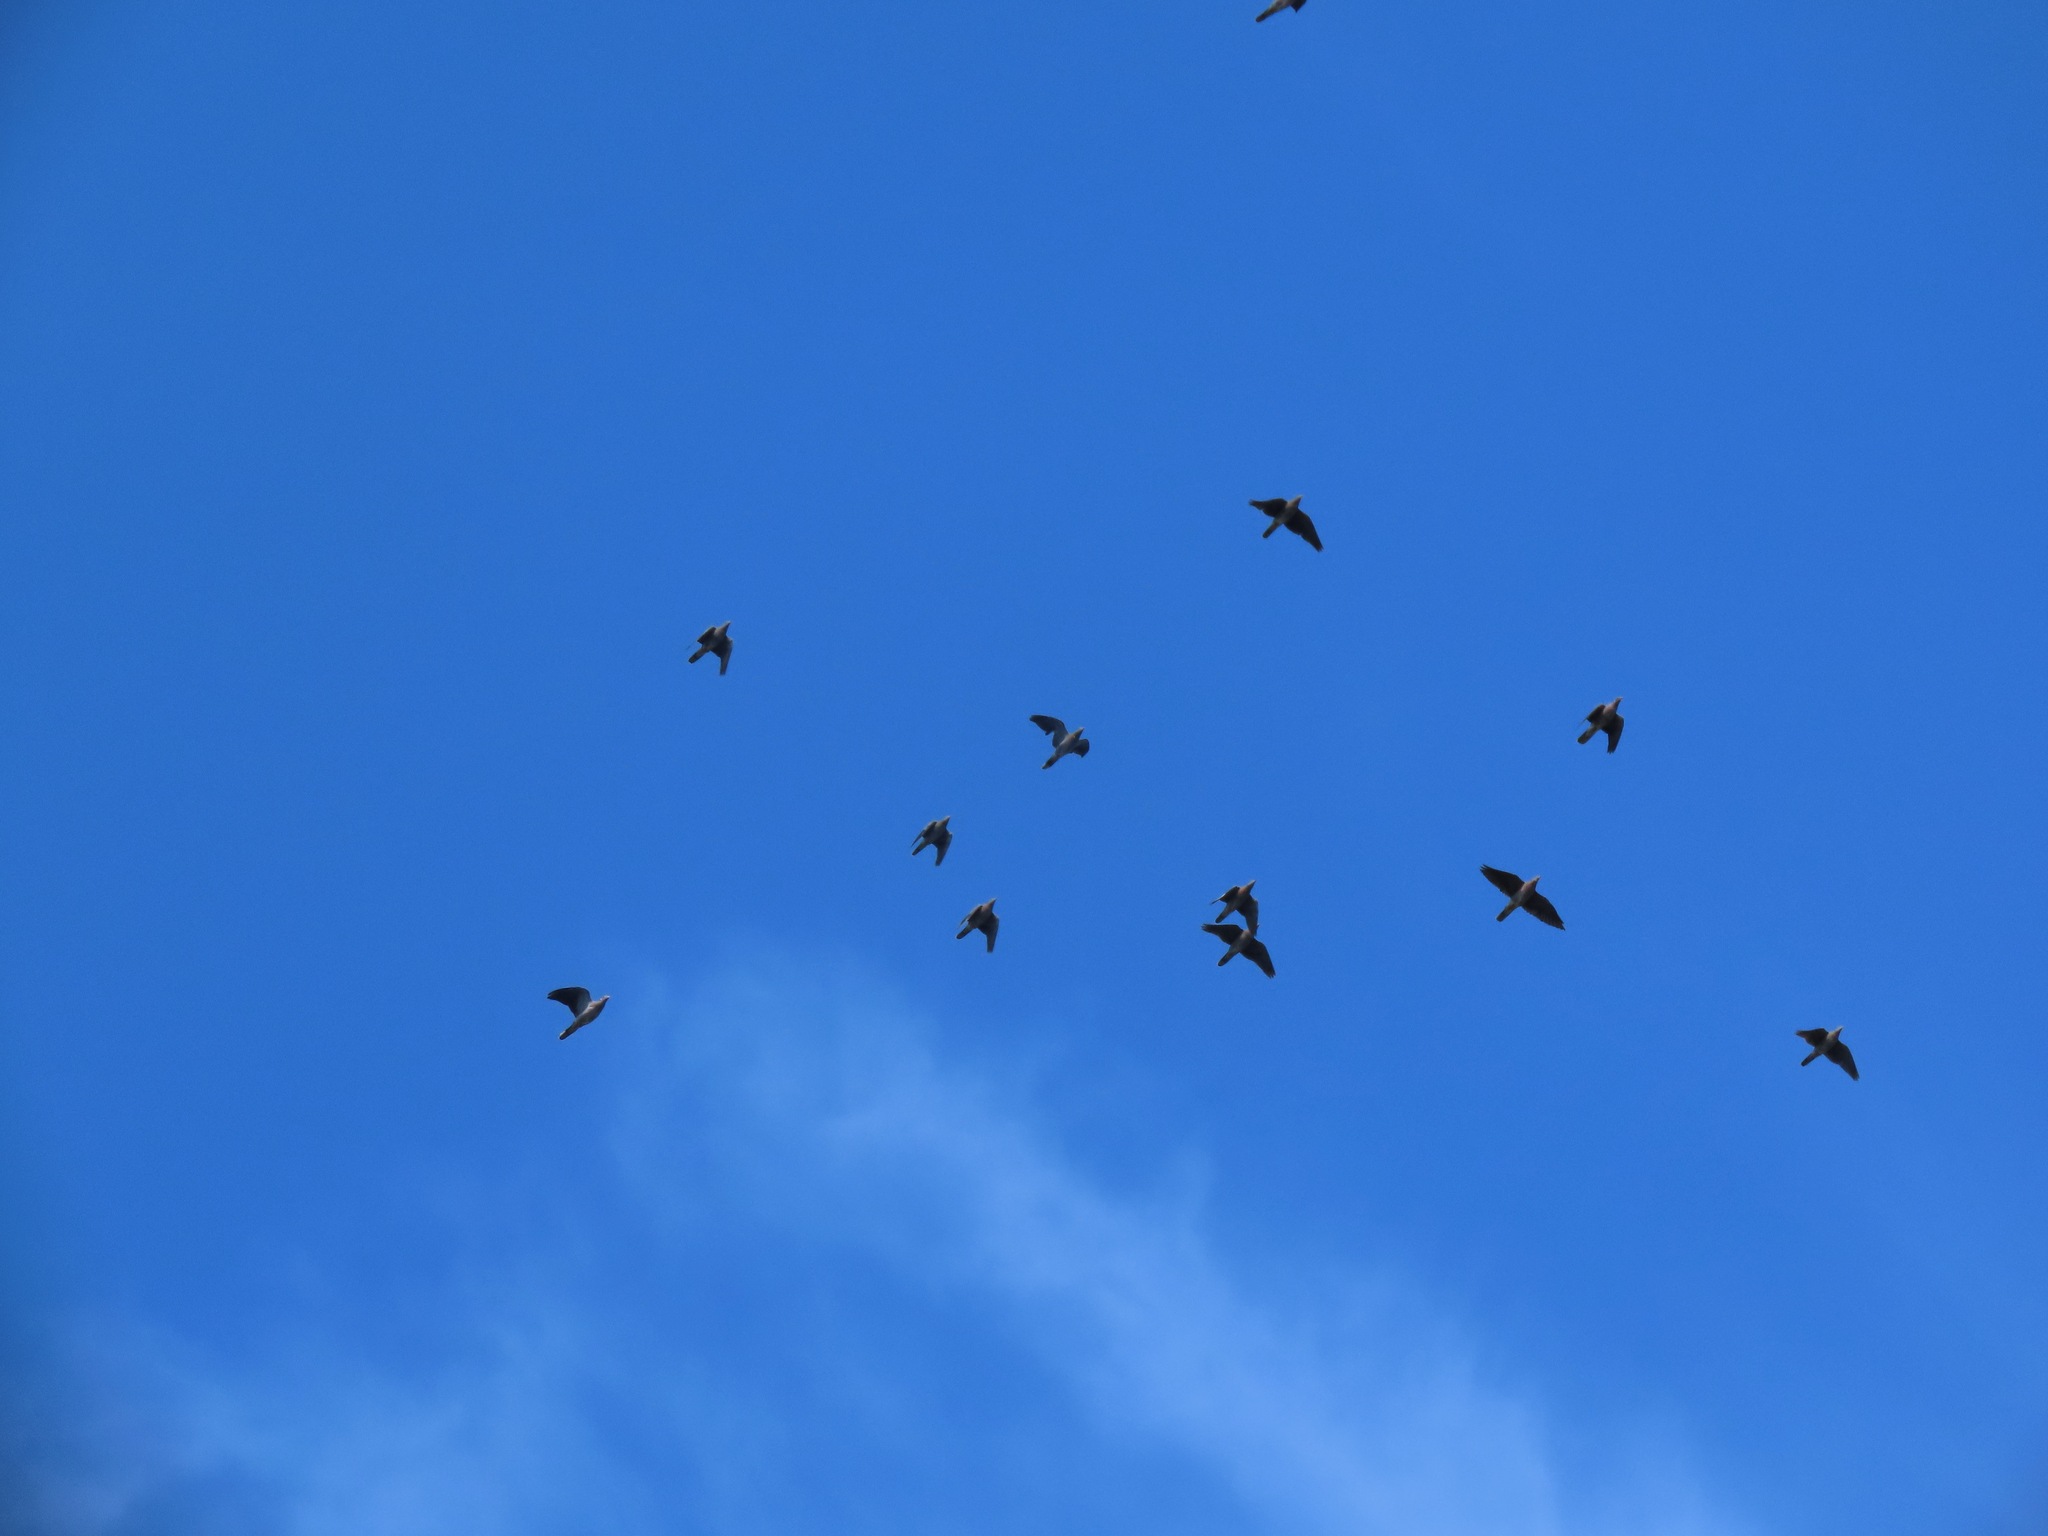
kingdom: Animalia
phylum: Chordata
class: Aves
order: Columbiformes
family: Columbidae
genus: Patagioenas
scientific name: Patagioenas fasciata
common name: Band-tailed pigeon
